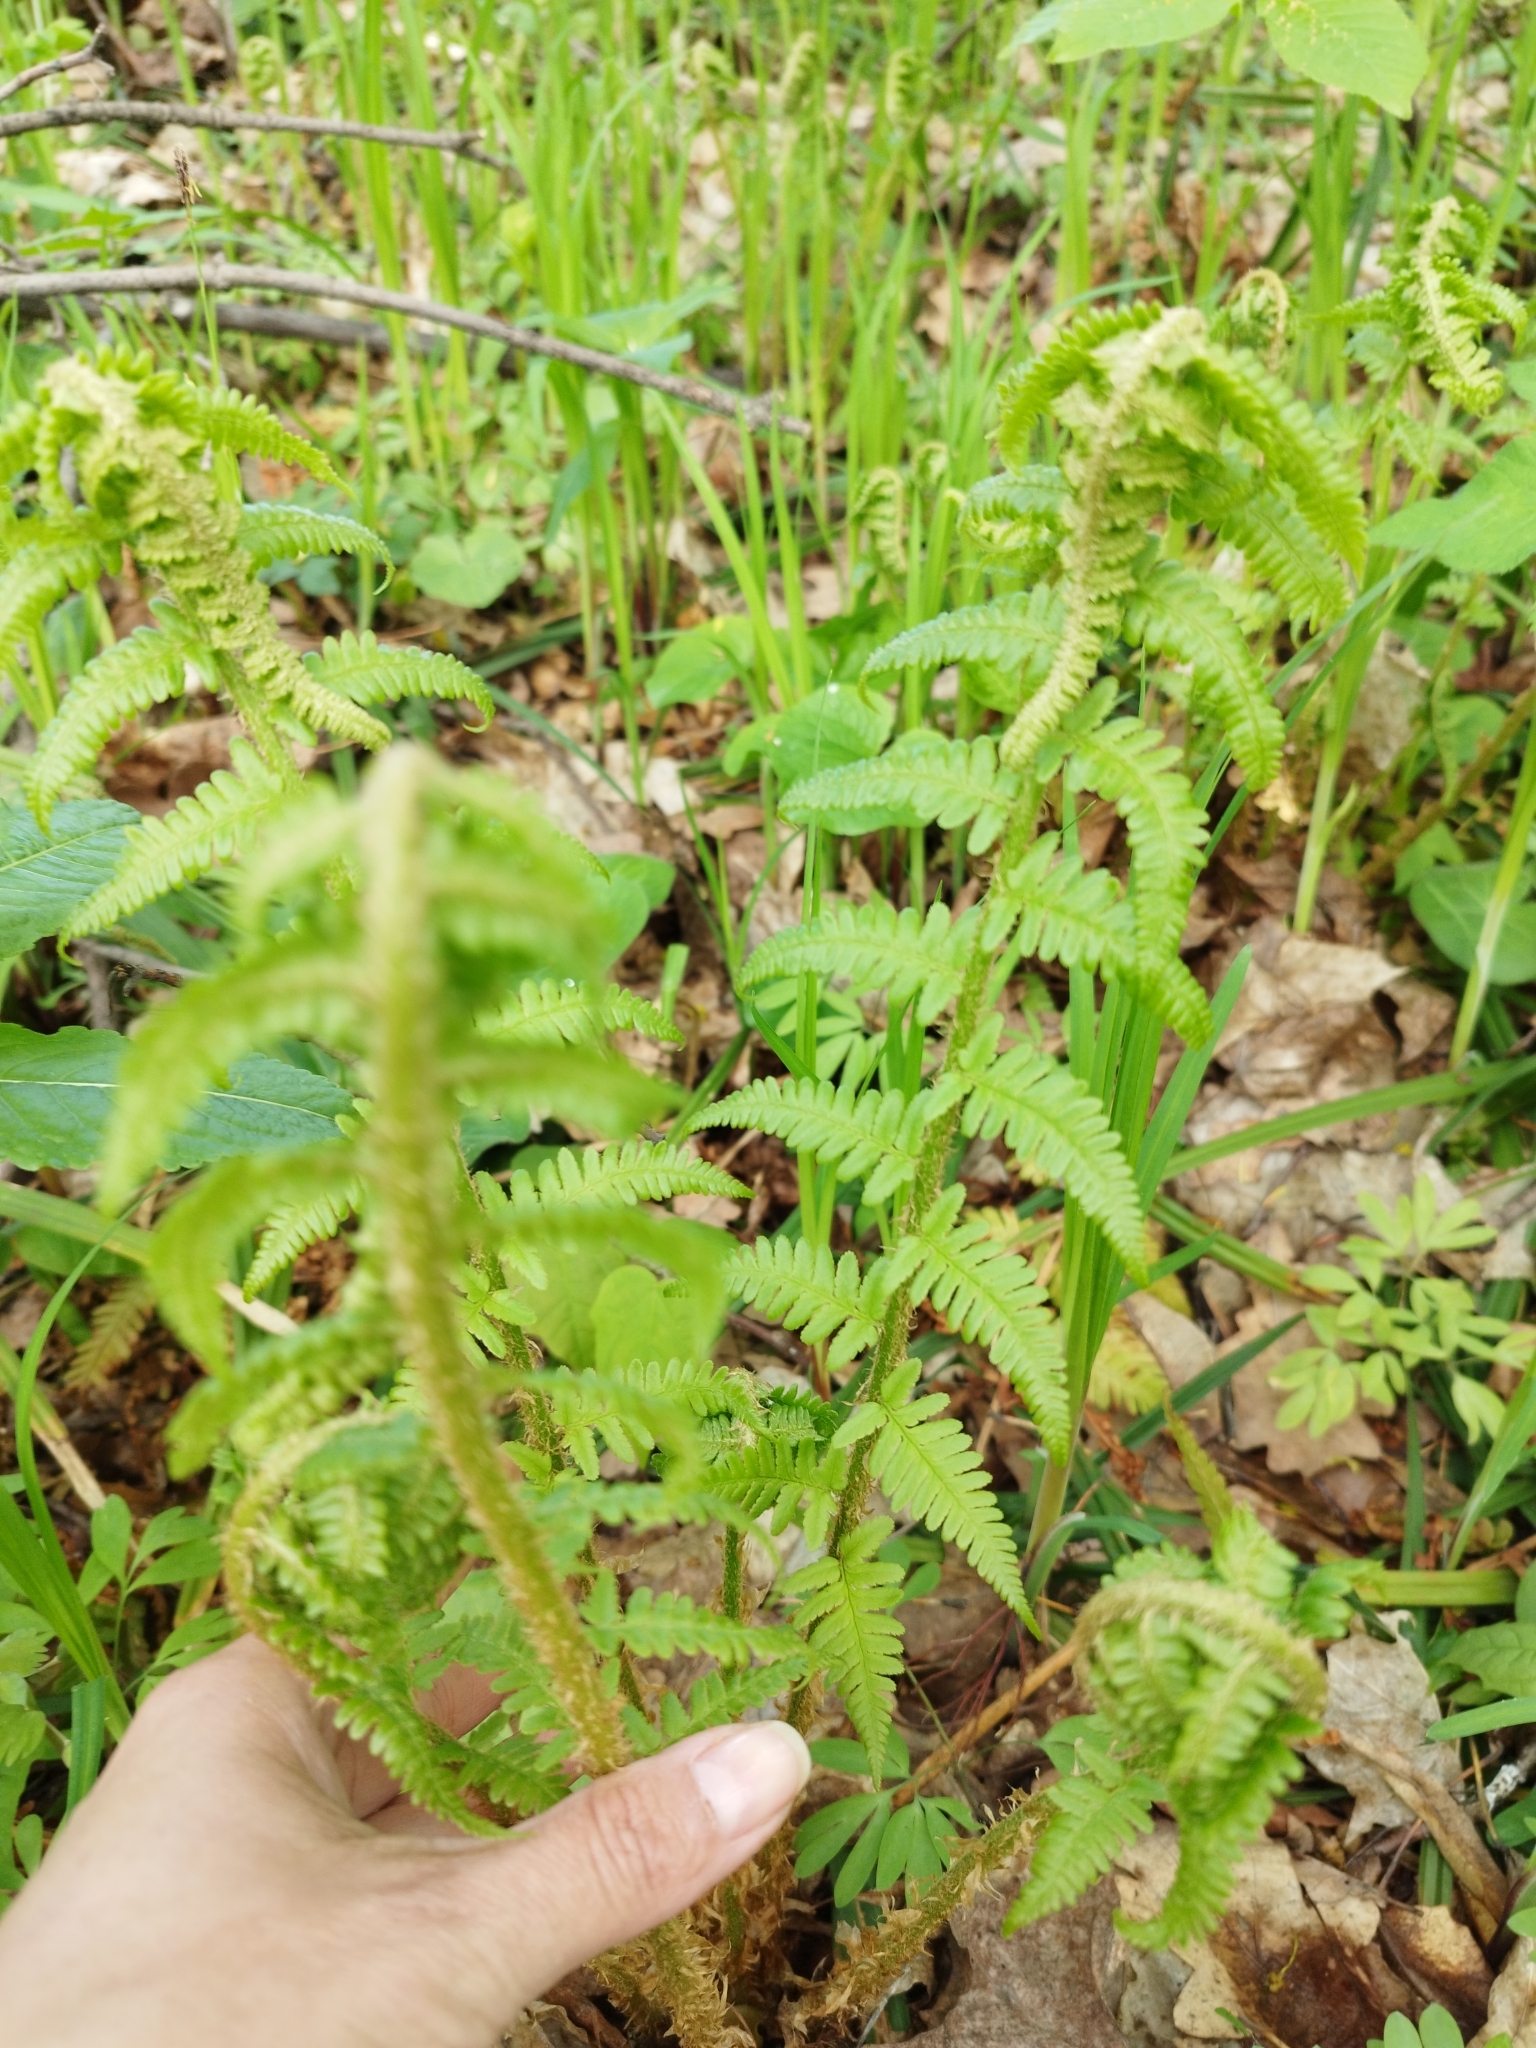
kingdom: Plantae
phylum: Tracheophyta
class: Polypodiopsida
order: Polypodiales
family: Dryopteridaceae
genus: Dryopteris
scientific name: Dryopteris filix-mas
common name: Male fern
